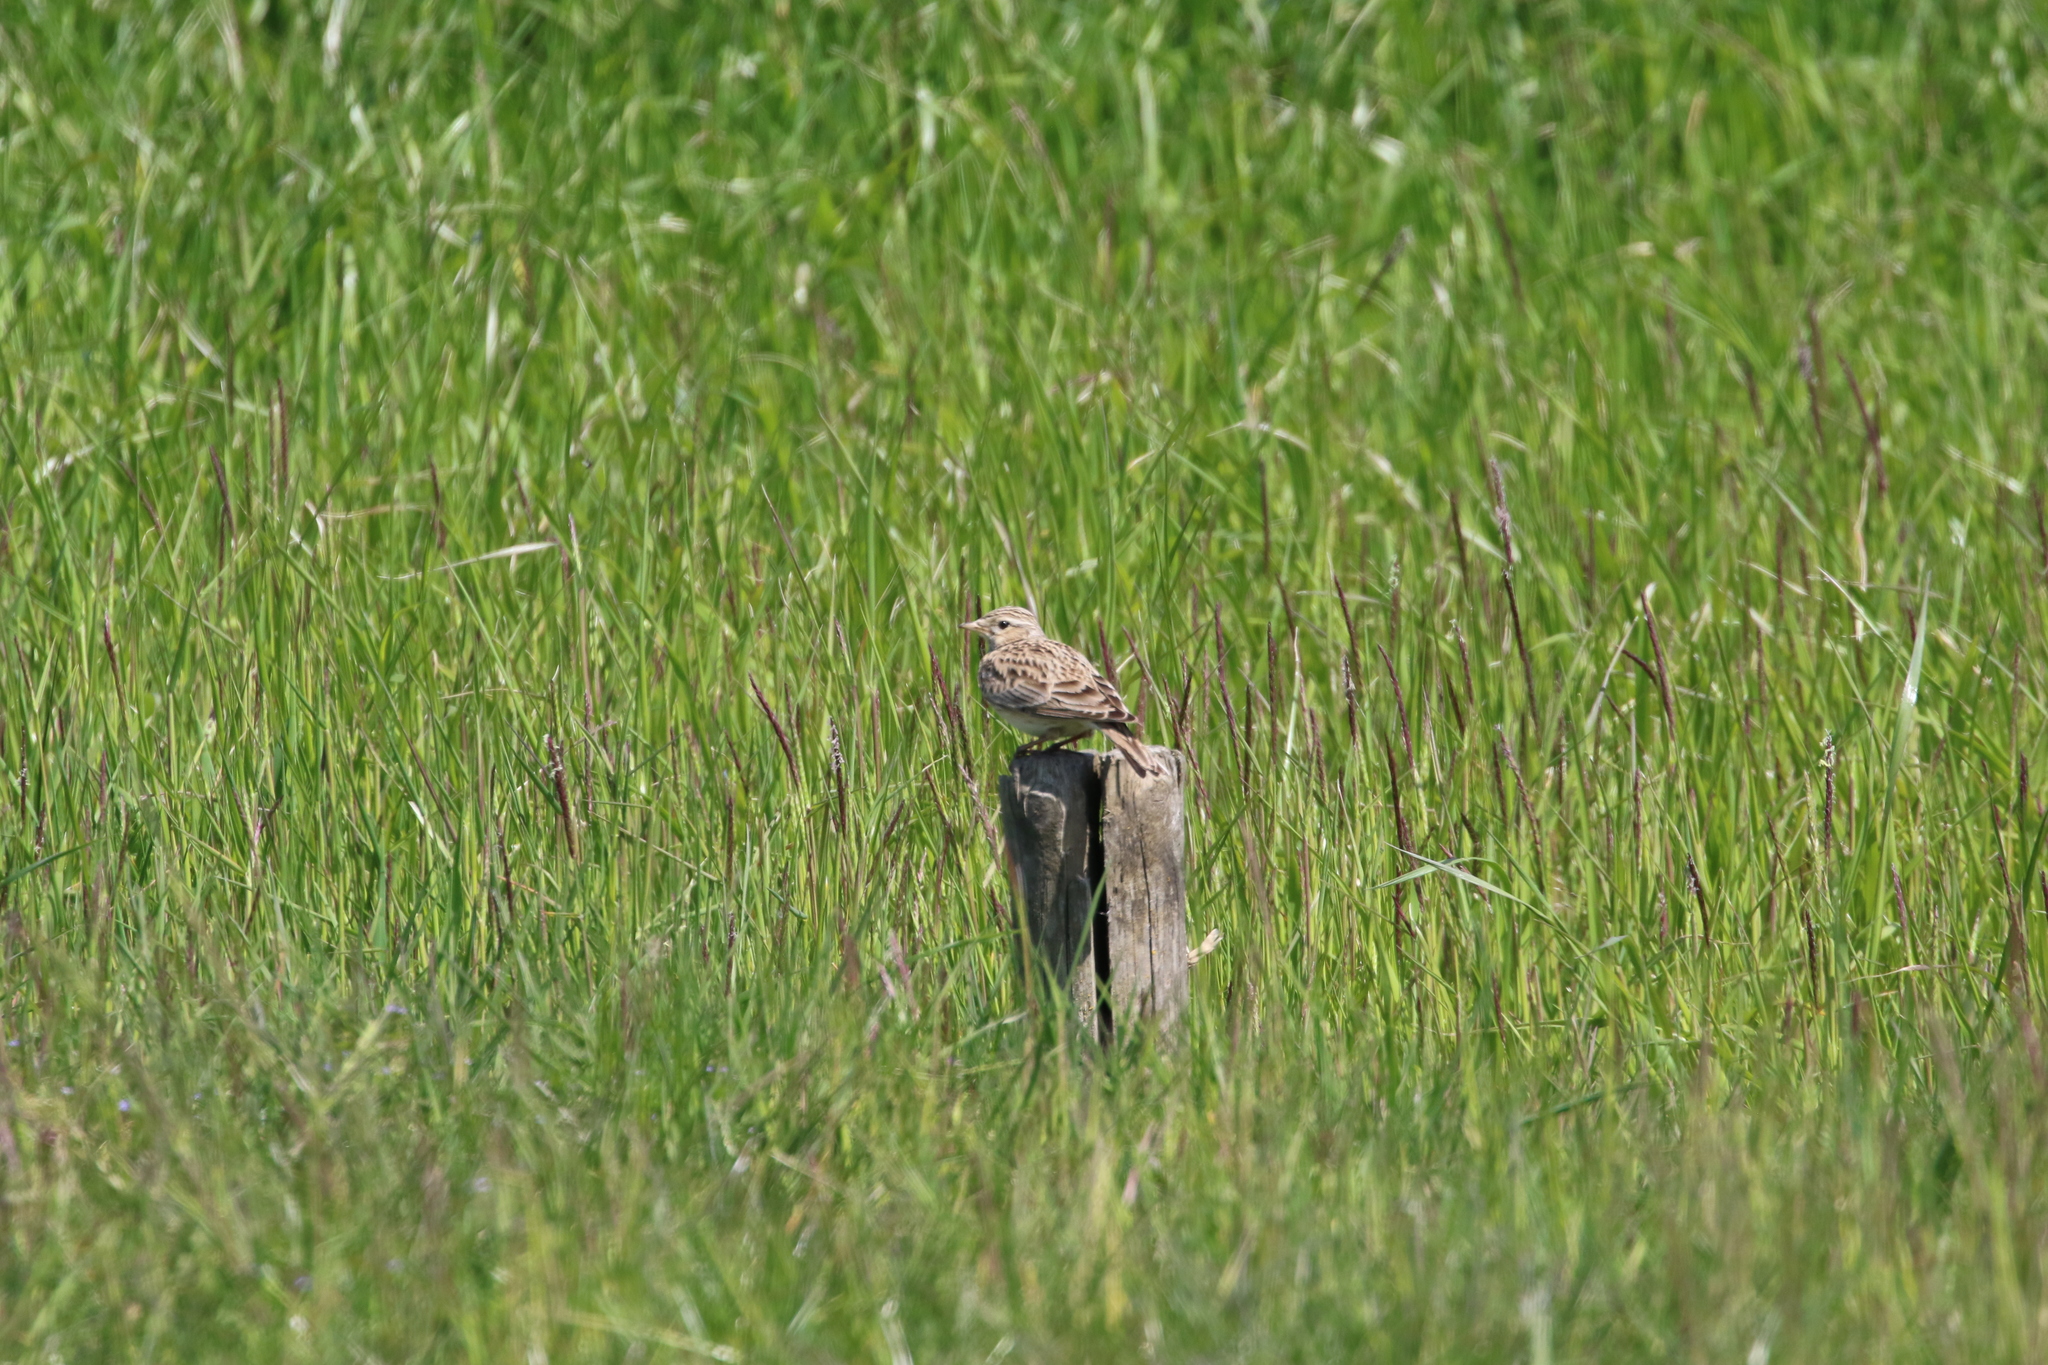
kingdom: Animalia
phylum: Chordata
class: Aves
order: Passeriformes
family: Alaudidae
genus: Alauda
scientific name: Alauda arvensis
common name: Eurasian skylark
